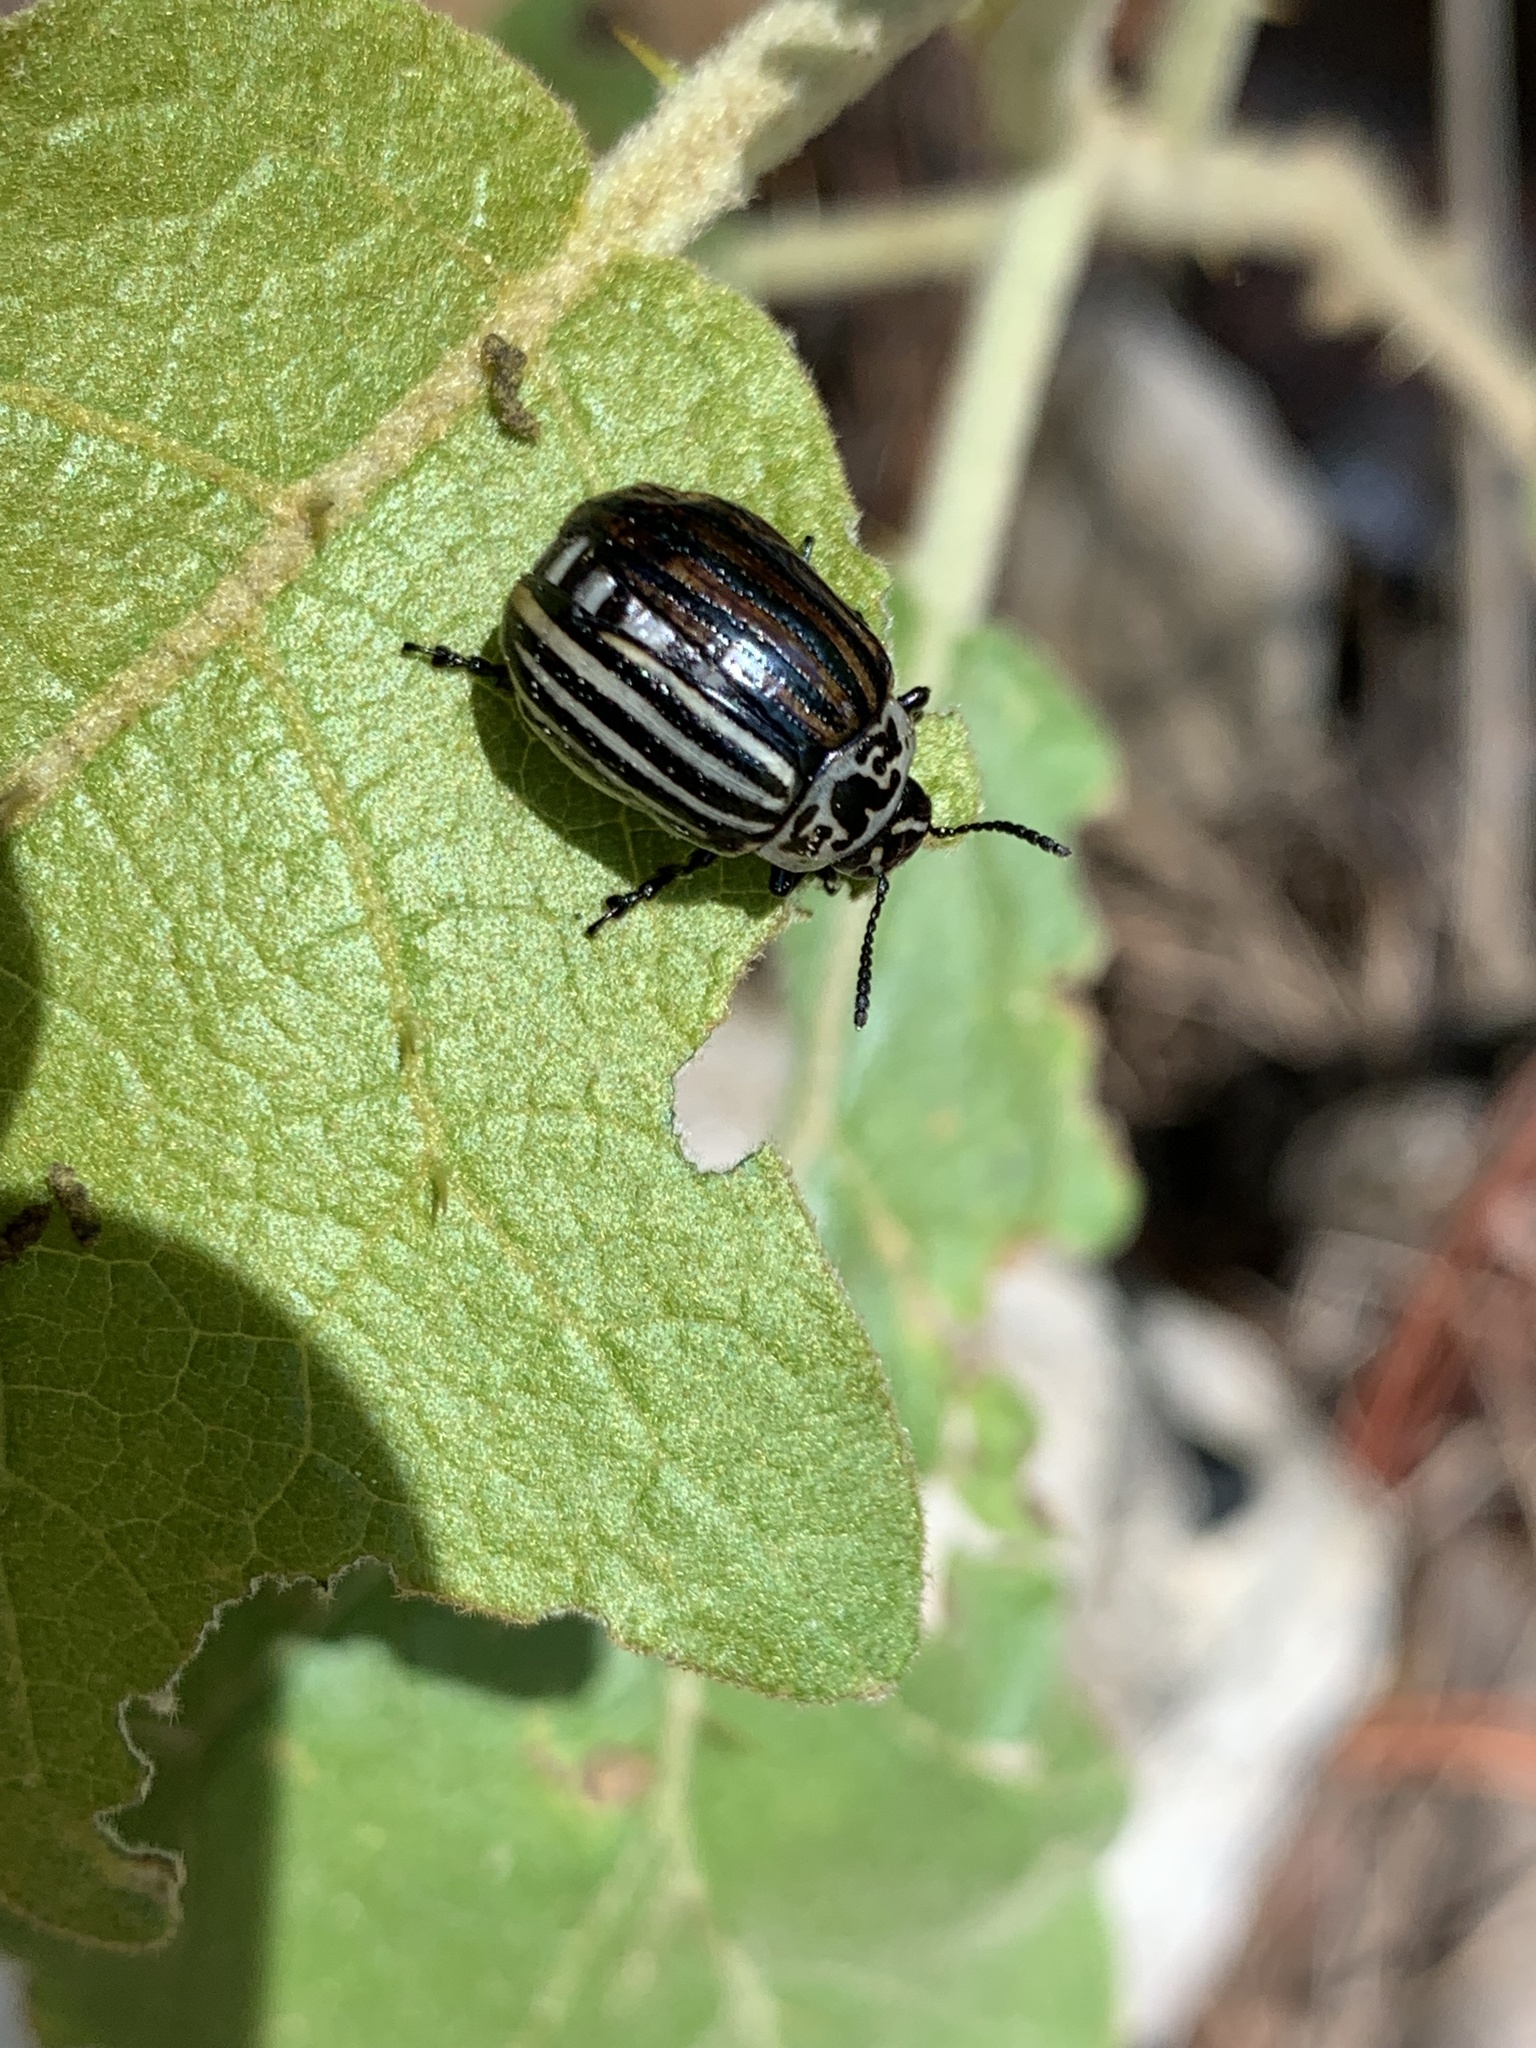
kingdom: Animalia
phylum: Arthropoda
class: Insecta
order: Coleoptera
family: Chrysomelidae
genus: Leptinotarsa
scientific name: Leptinotarsa
